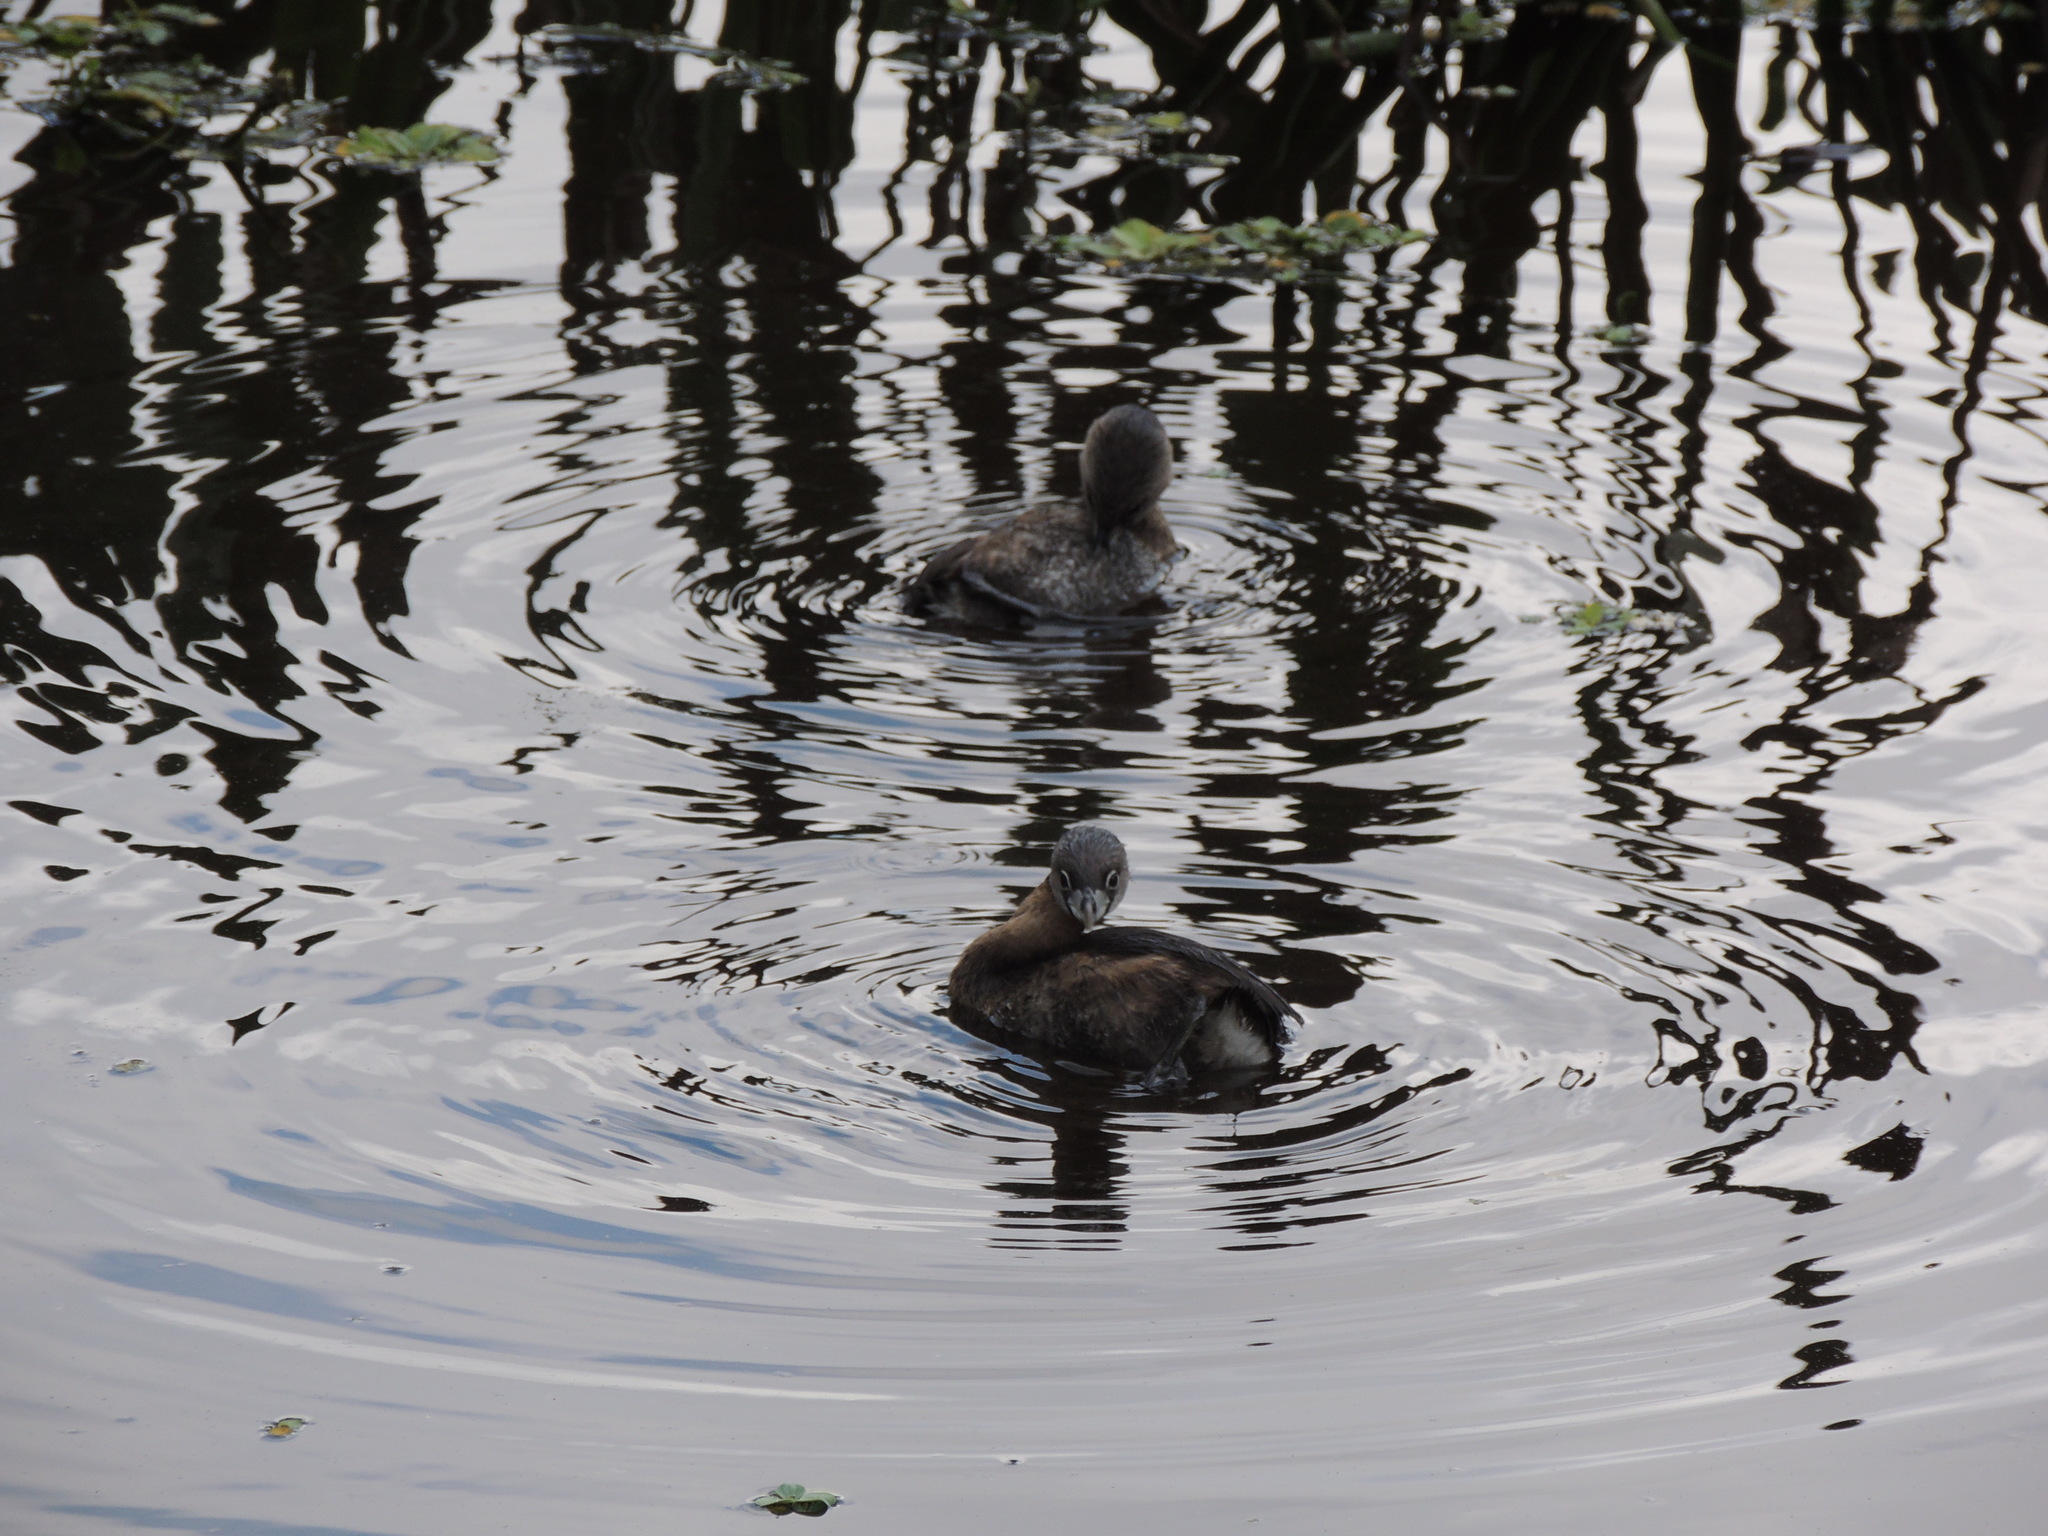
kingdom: Animalia
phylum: Chordata
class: Aves
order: Podicipediformes
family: Podicipedidae
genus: Podilymbus
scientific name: Podilymbus podiceps
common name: Pied-billed grebe
